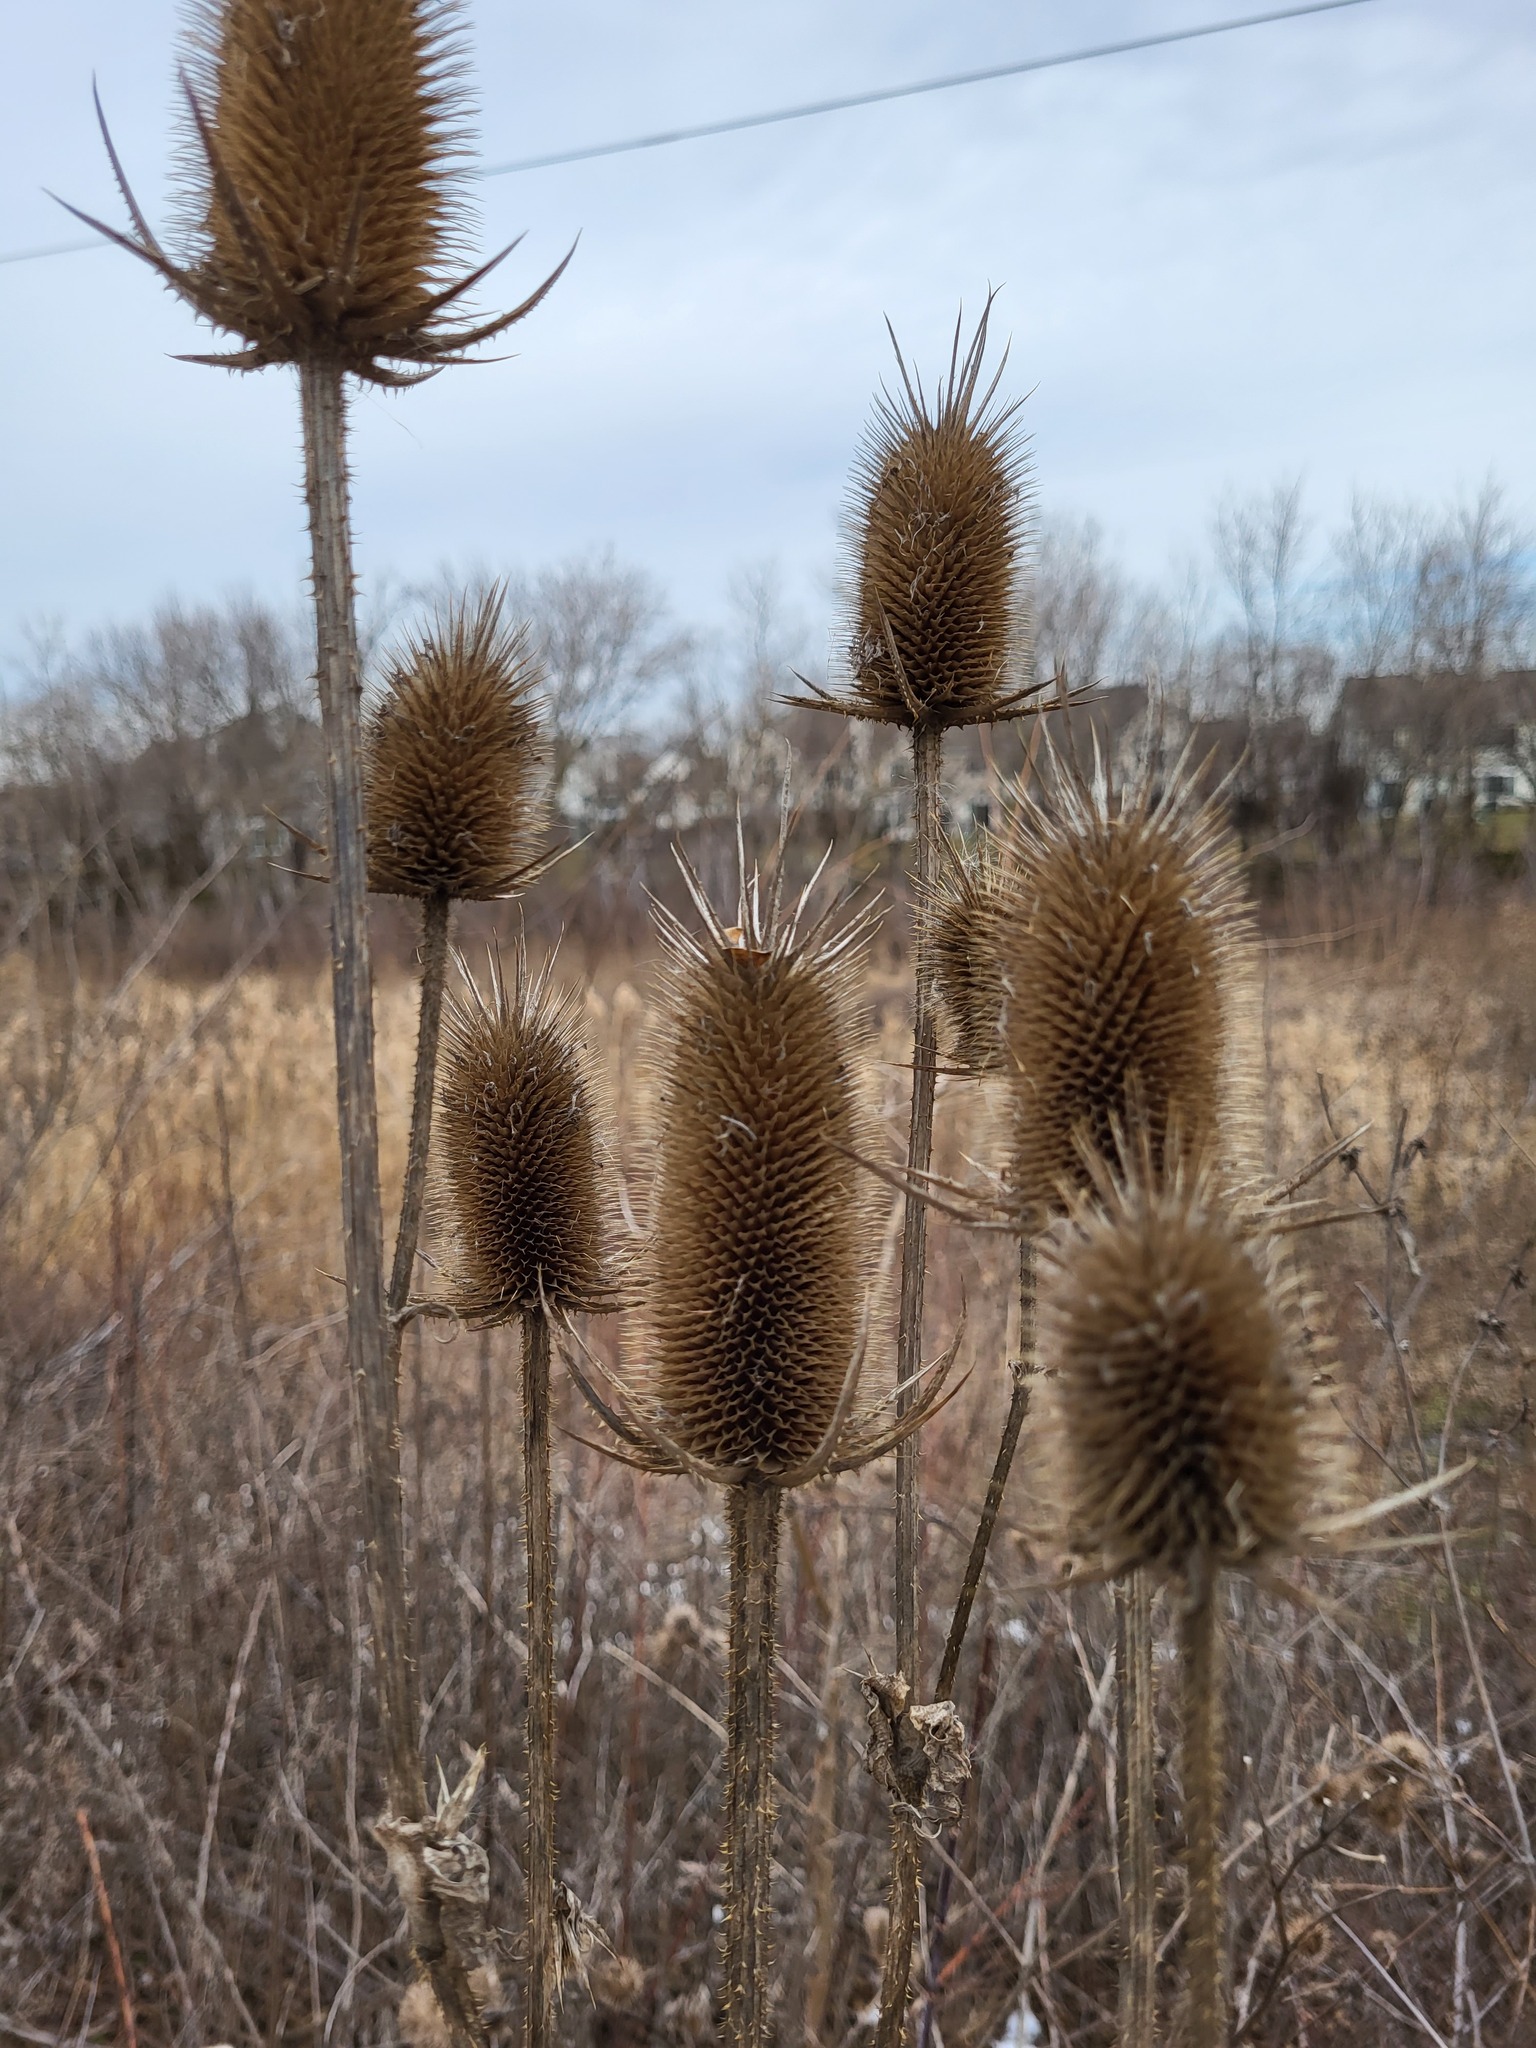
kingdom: Plantae
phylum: Tracheophyta
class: Magnoliopsida
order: Dipsacales
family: Caprifoliaceae
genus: Dipsacus
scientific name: Dipsacus laciniatus
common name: Cut-leaved teasel
